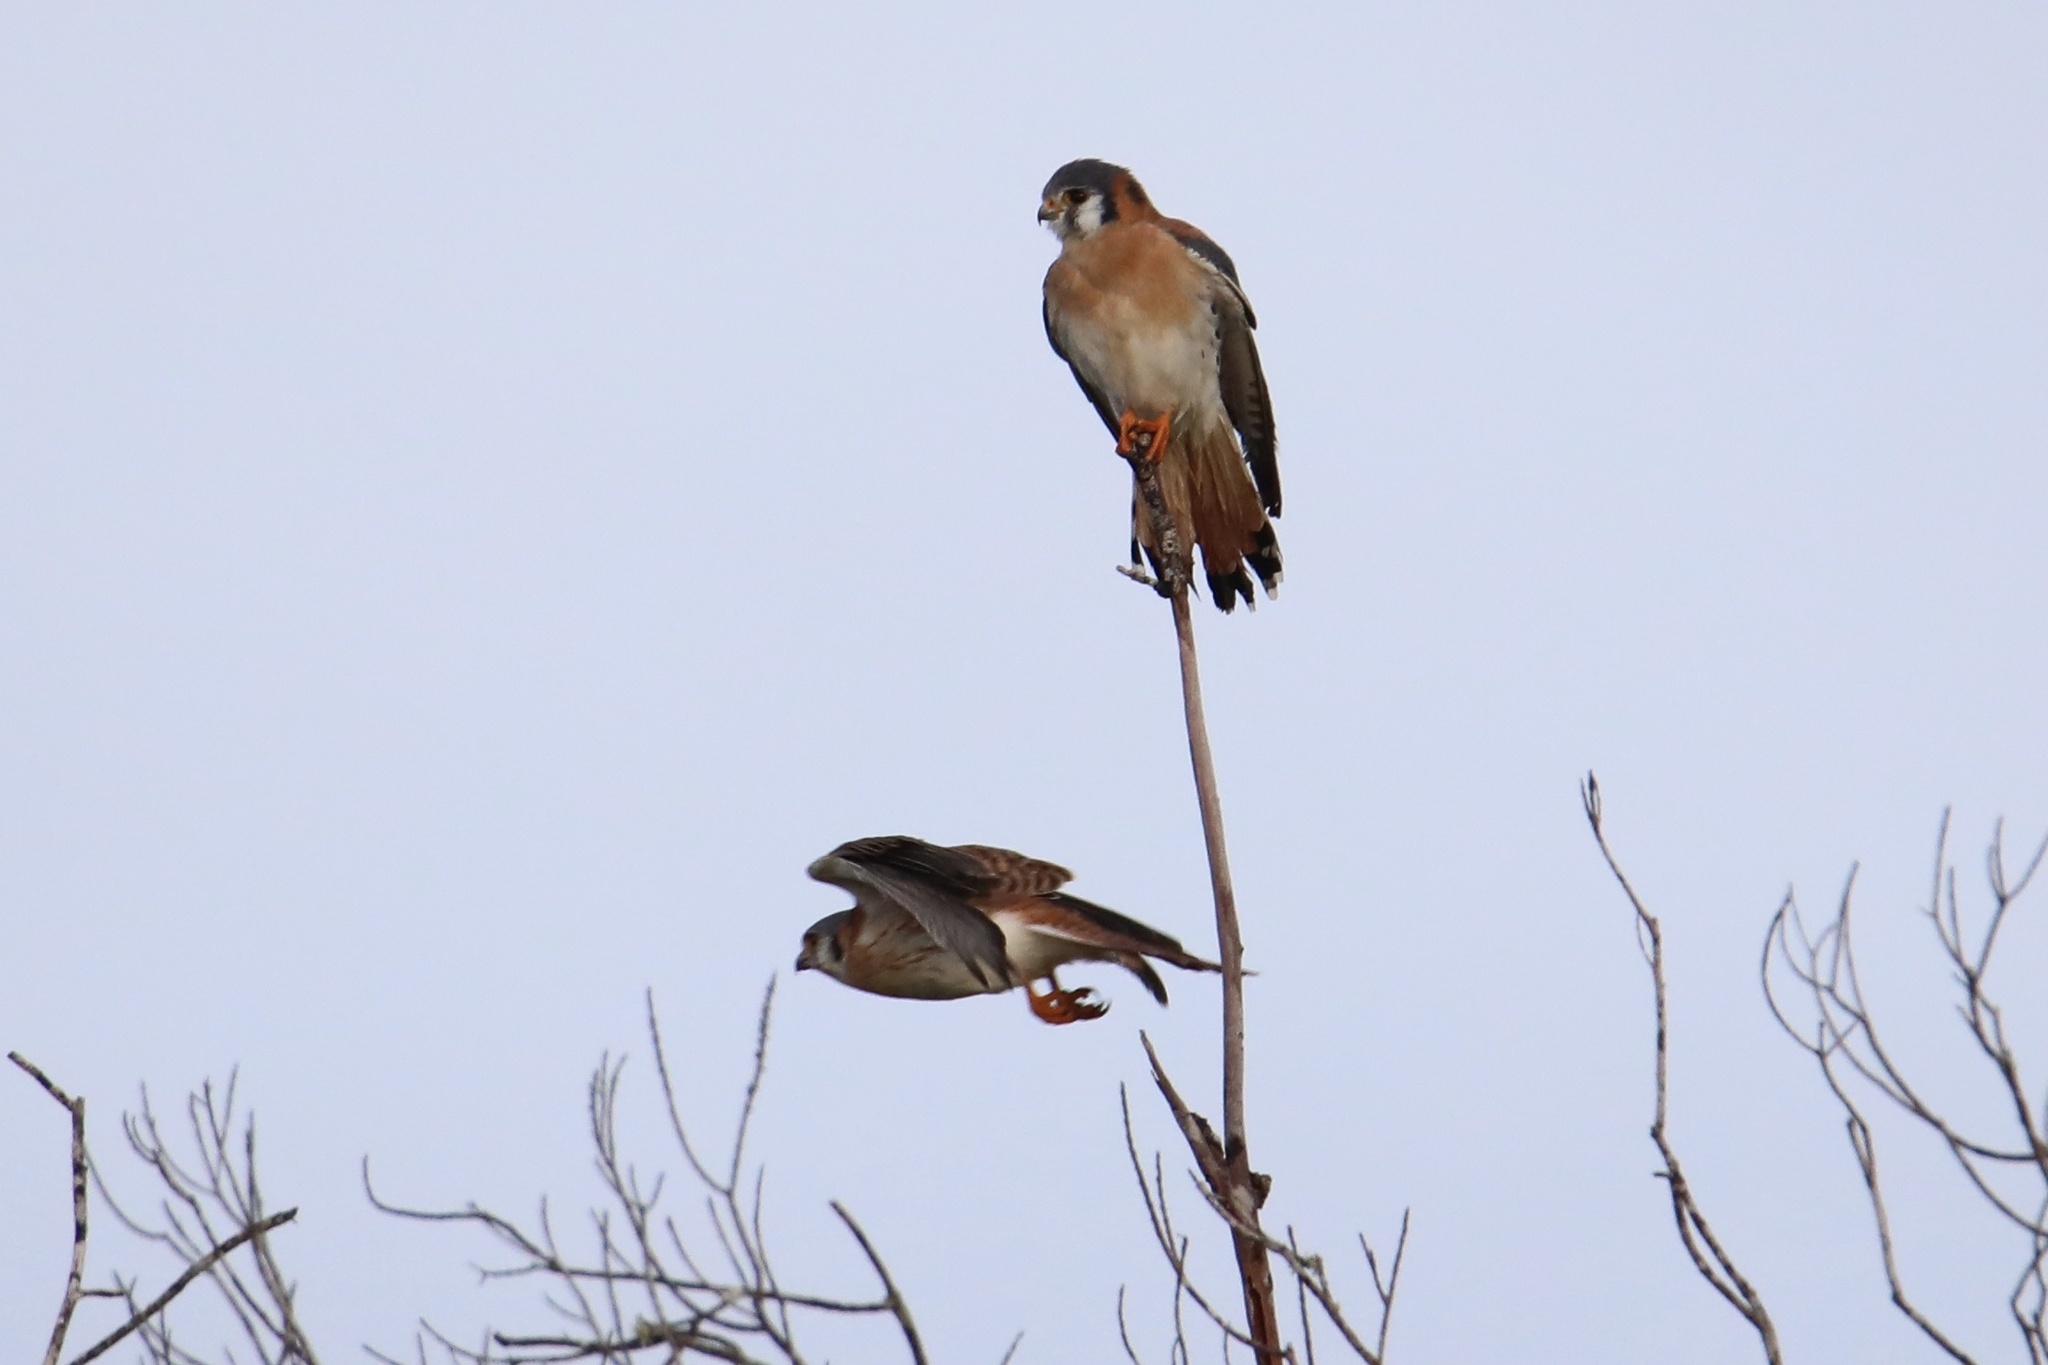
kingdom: Animalia
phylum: Chordata
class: Aves
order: Falconiformes
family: Falconidae
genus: Falco
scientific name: Falco sparverius
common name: American kestrel
